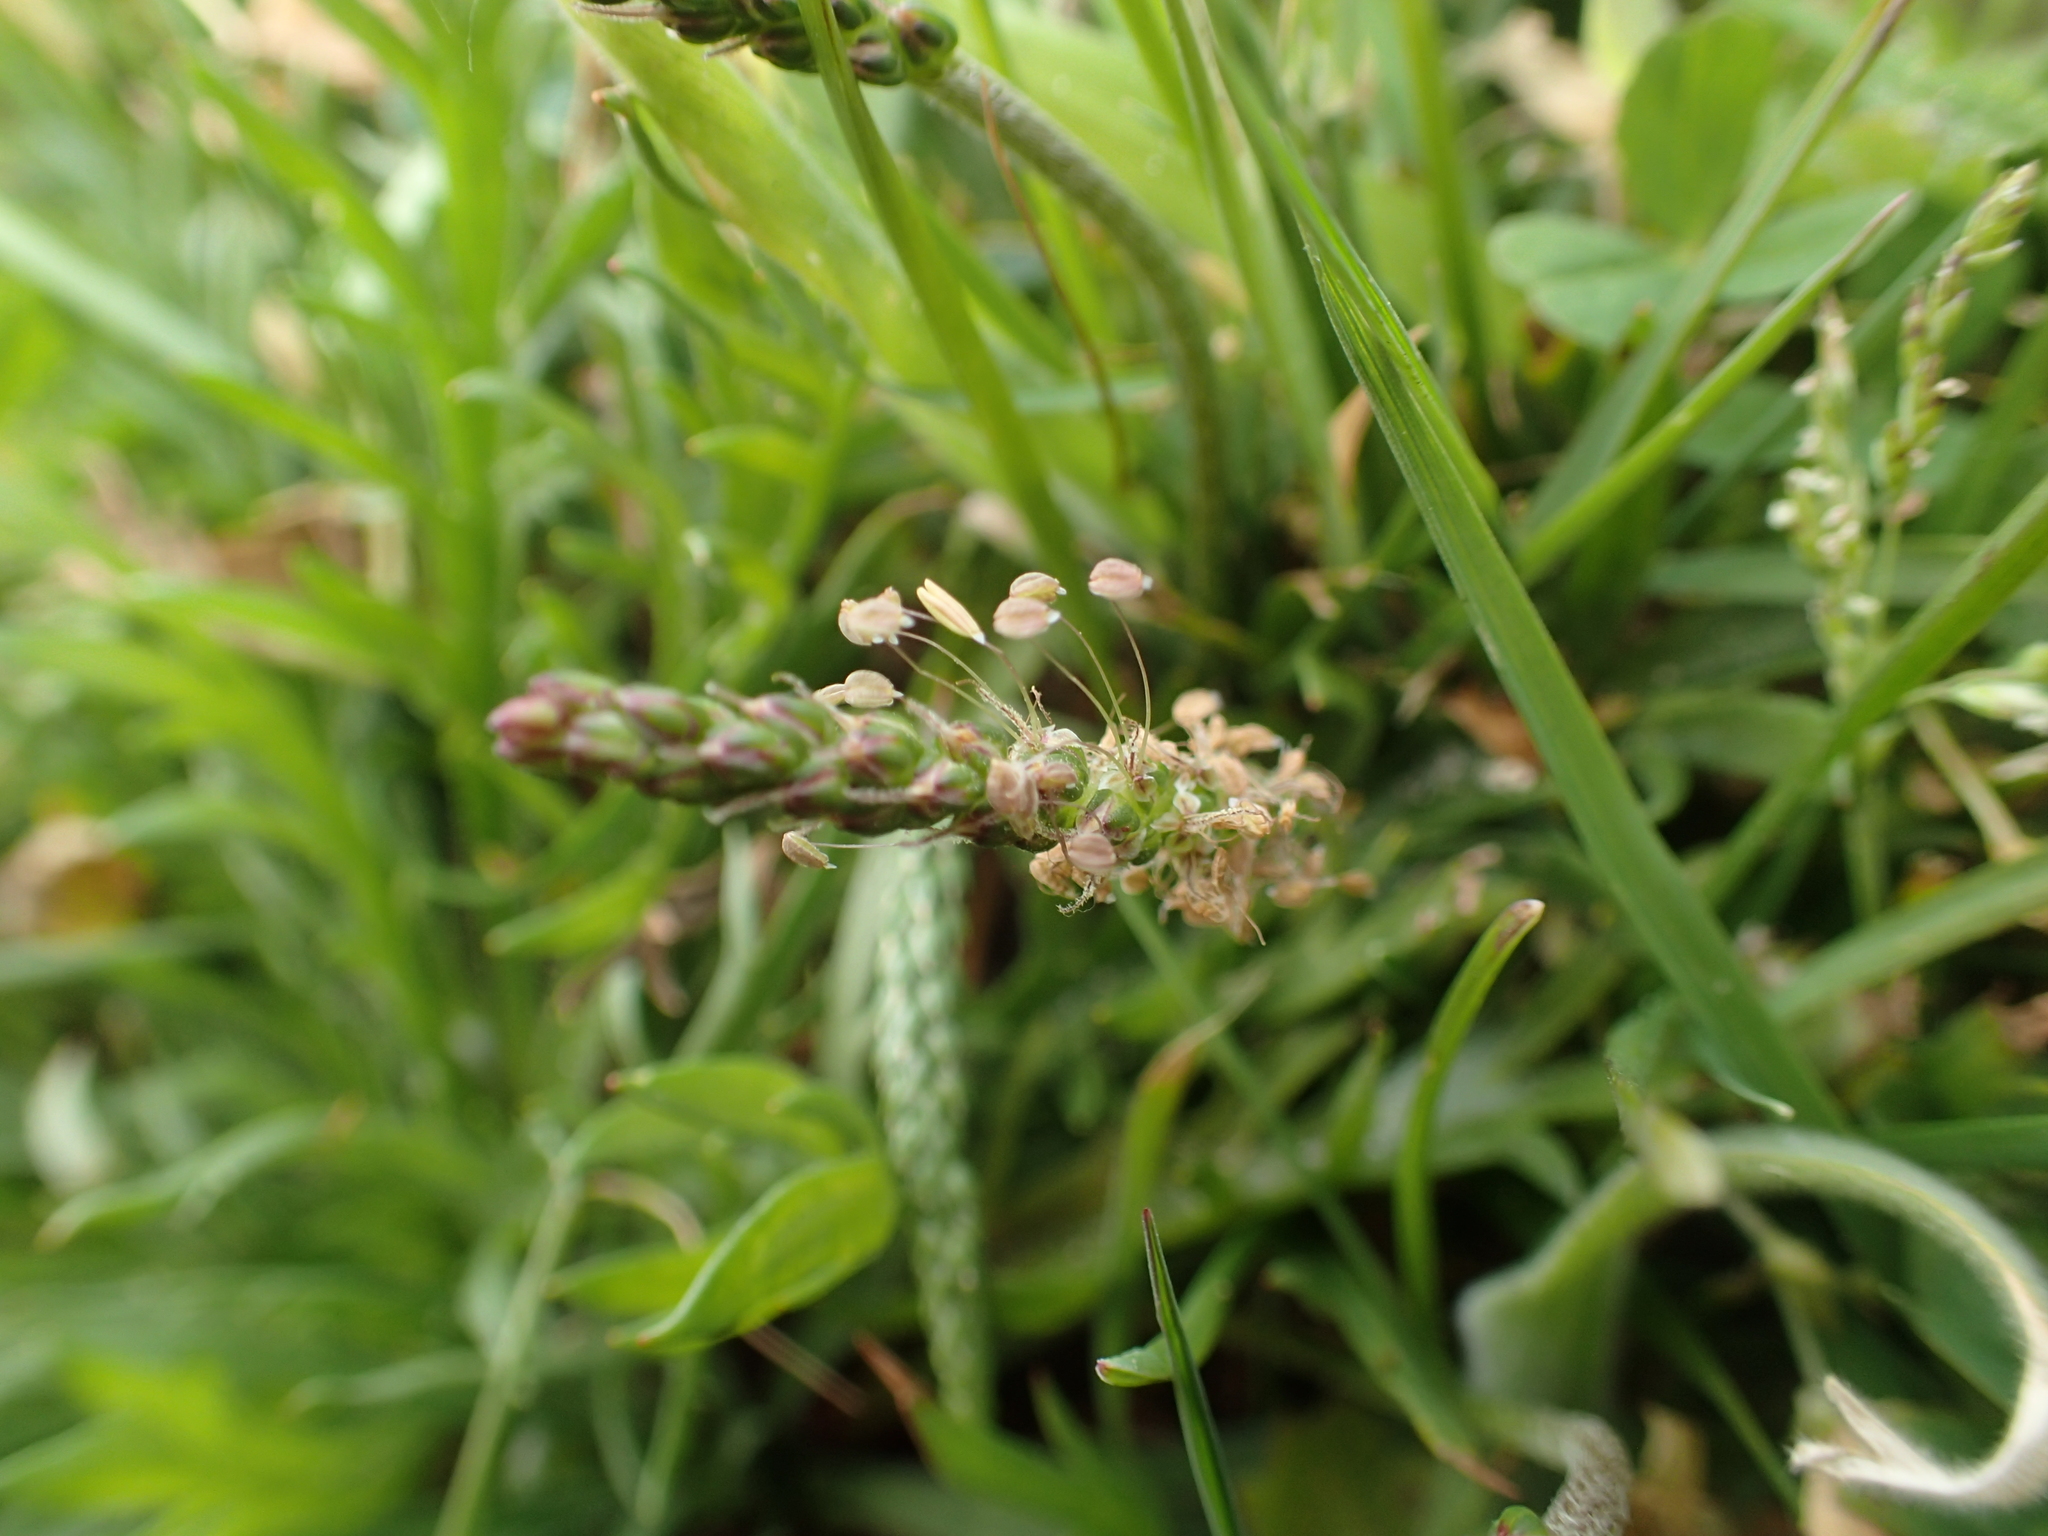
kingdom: Plantae
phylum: Tracheophyta
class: Magnoliopsida
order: Lamiales
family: Plantaginaceae
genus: Plantago
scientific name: Plantago coronopus
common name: Buck's-horn plantain
